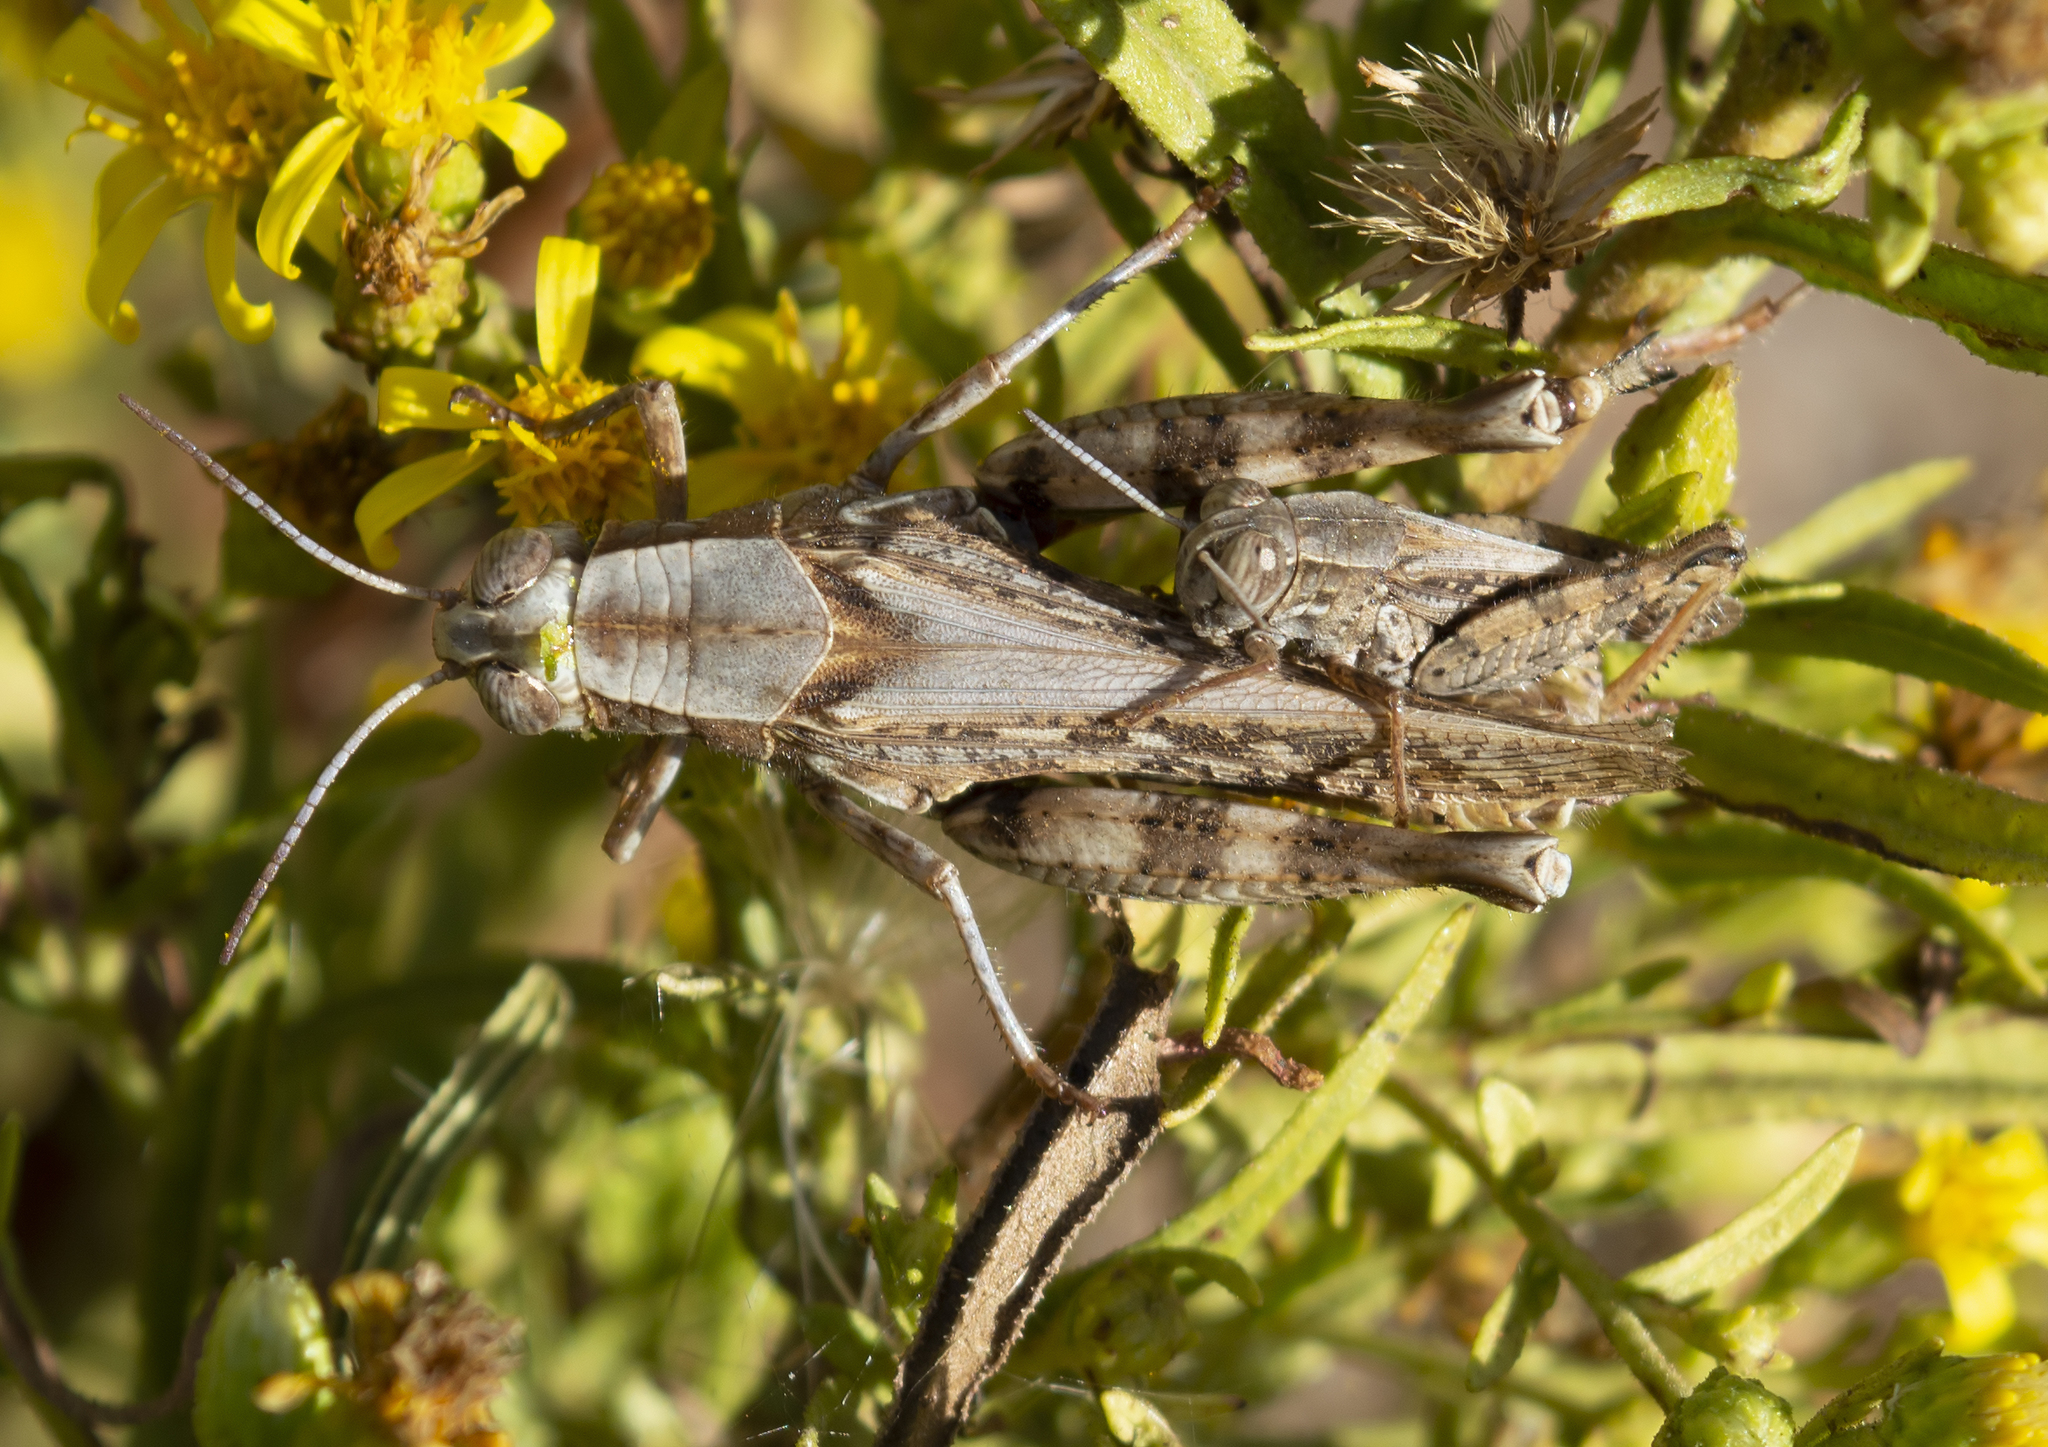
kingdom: Animalia
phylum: Arthropoda
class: Insecta
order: Orthoptera
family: Acrididae
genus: Calliptamus
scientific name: Calliptamus
